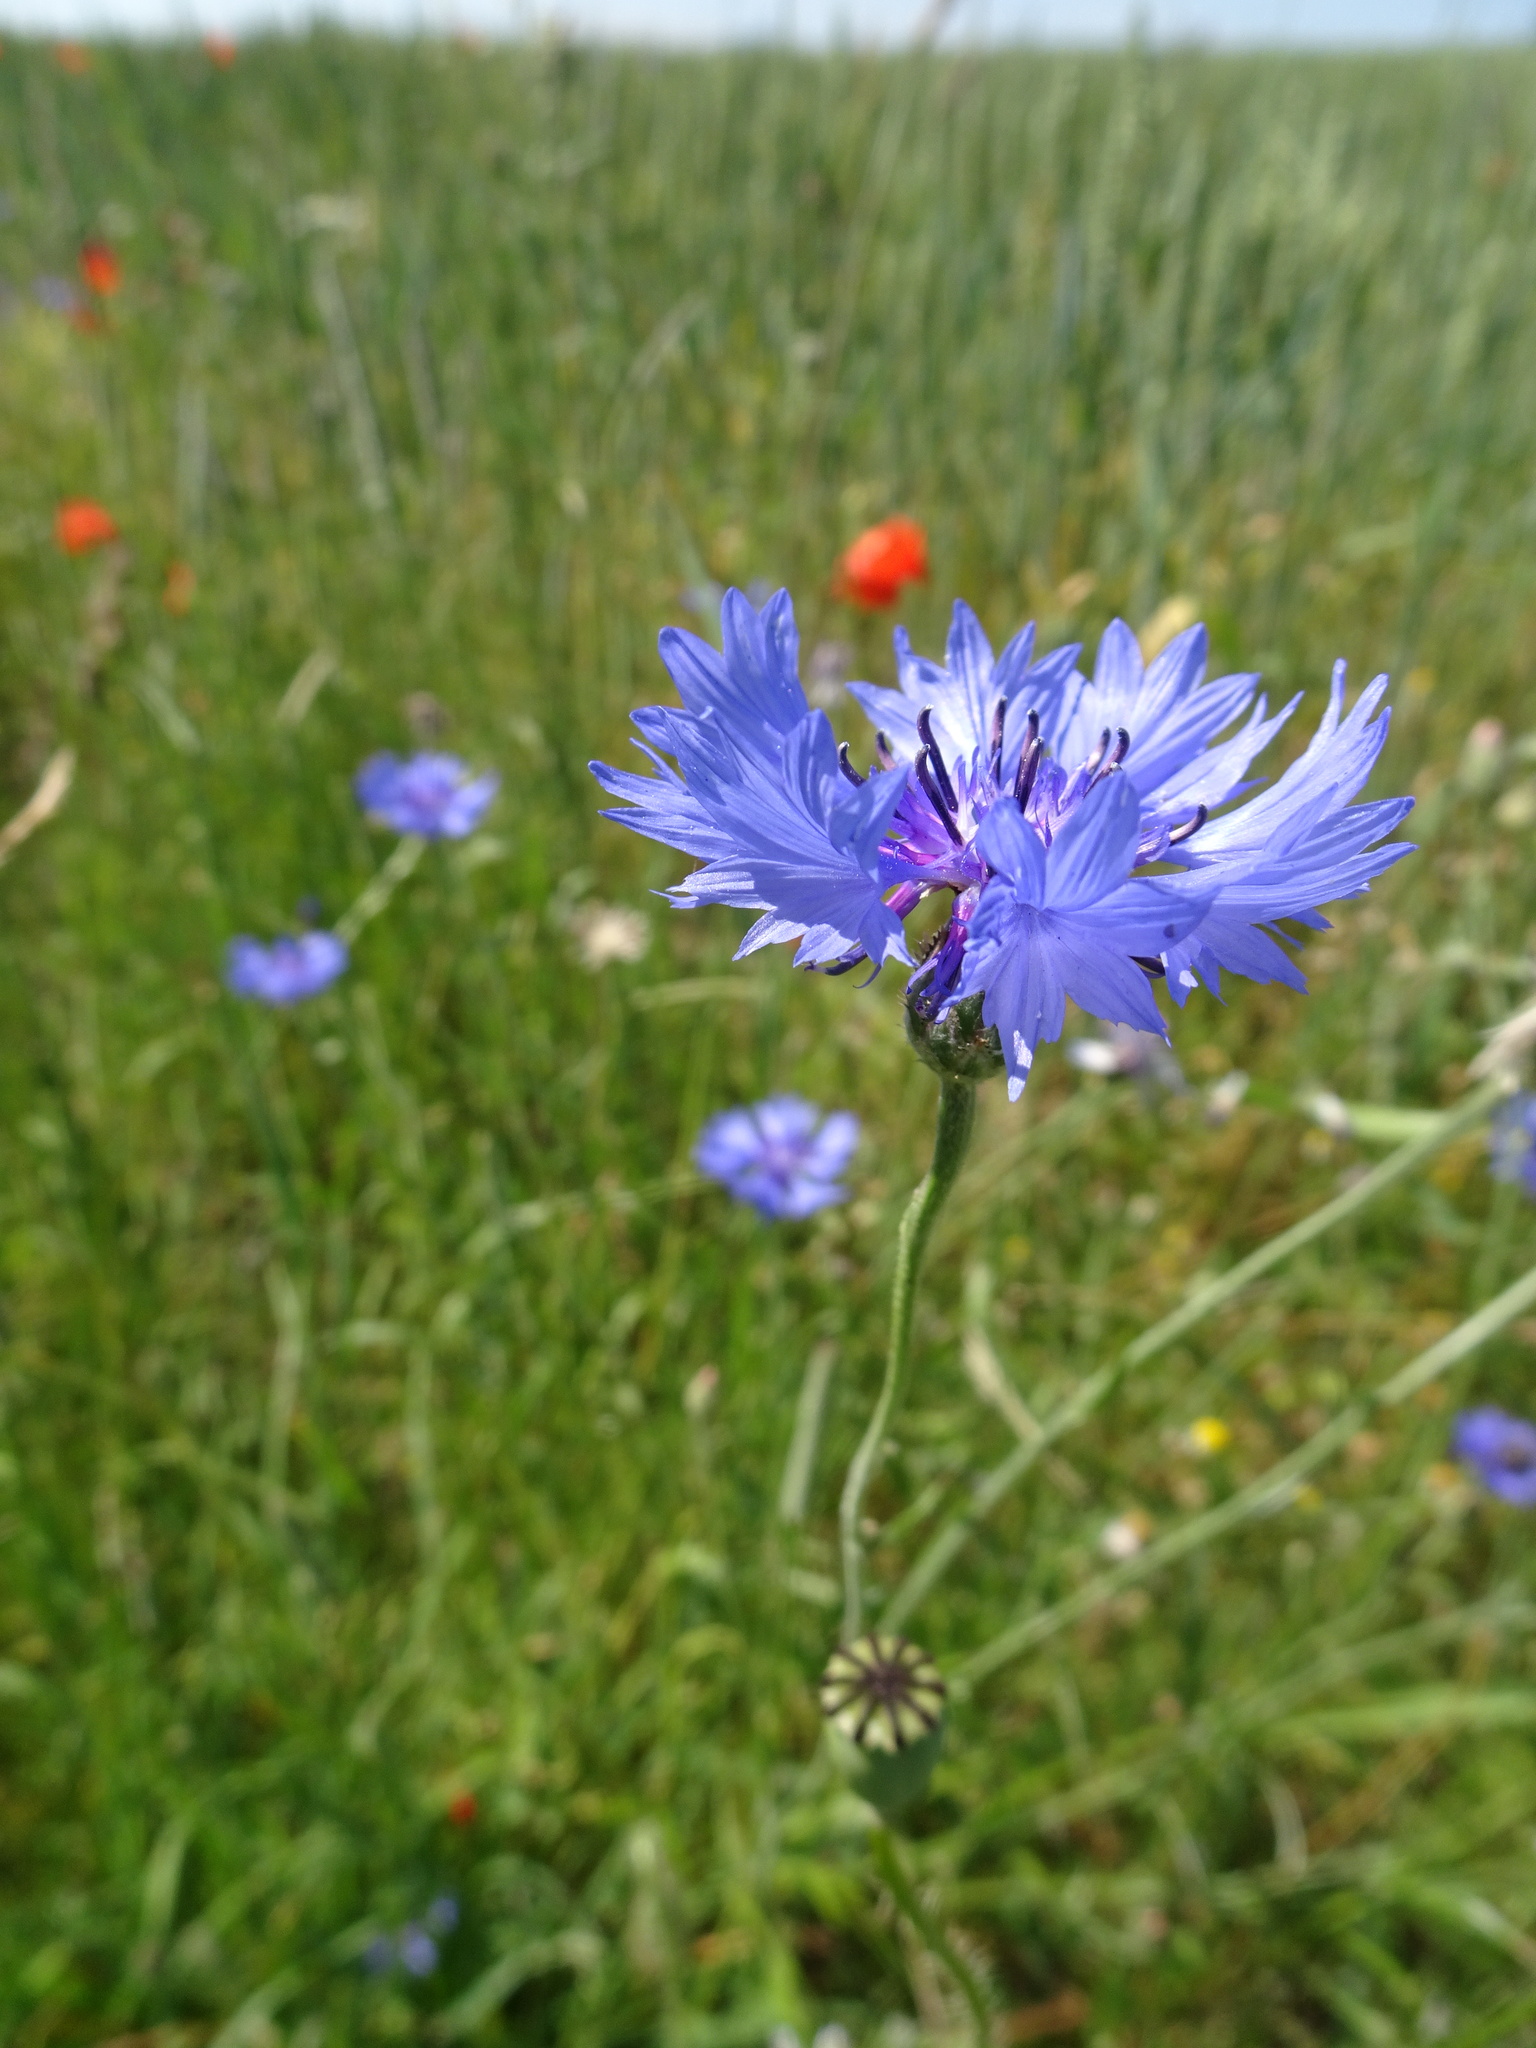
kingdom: Plantae
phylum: Tracheophyta
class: Magnoliopsida
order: Asterales
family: Asteraceae
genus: Centaurea
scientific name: Centaurea cyanus
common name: Cornflower
